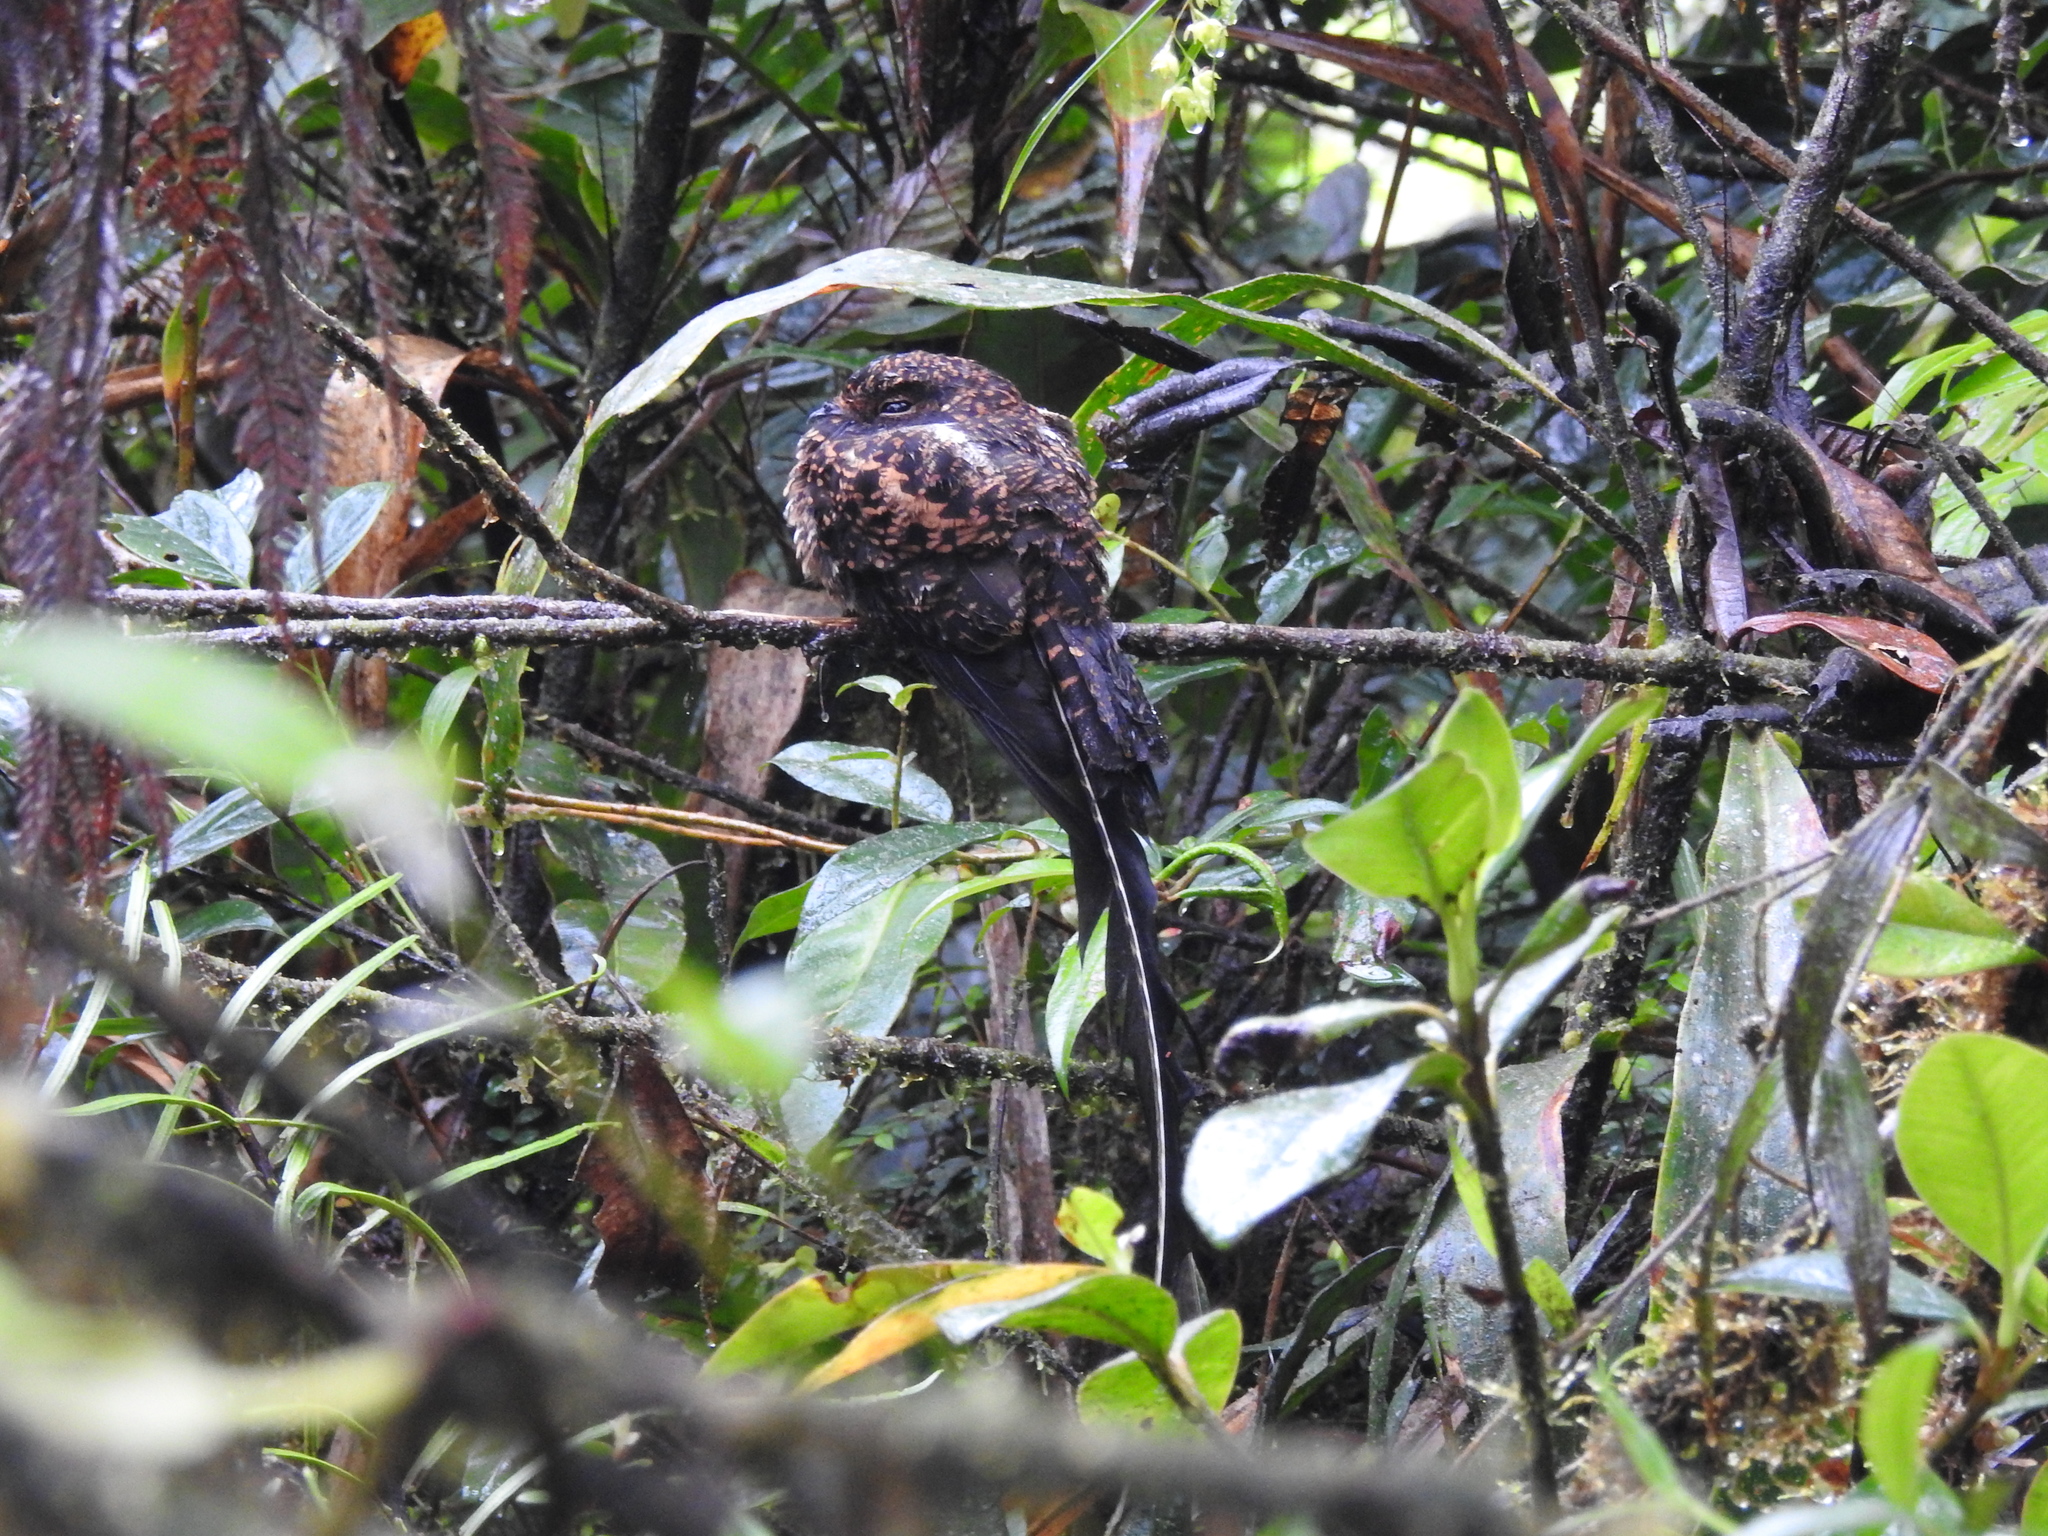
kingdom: Animalia
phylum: Chordata
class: Aves
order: Caprimulgiformes
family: Caprimulgidae
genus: Uropsalis
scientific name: Uropsalis segmentata
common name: Swallow-tailed nightjar
